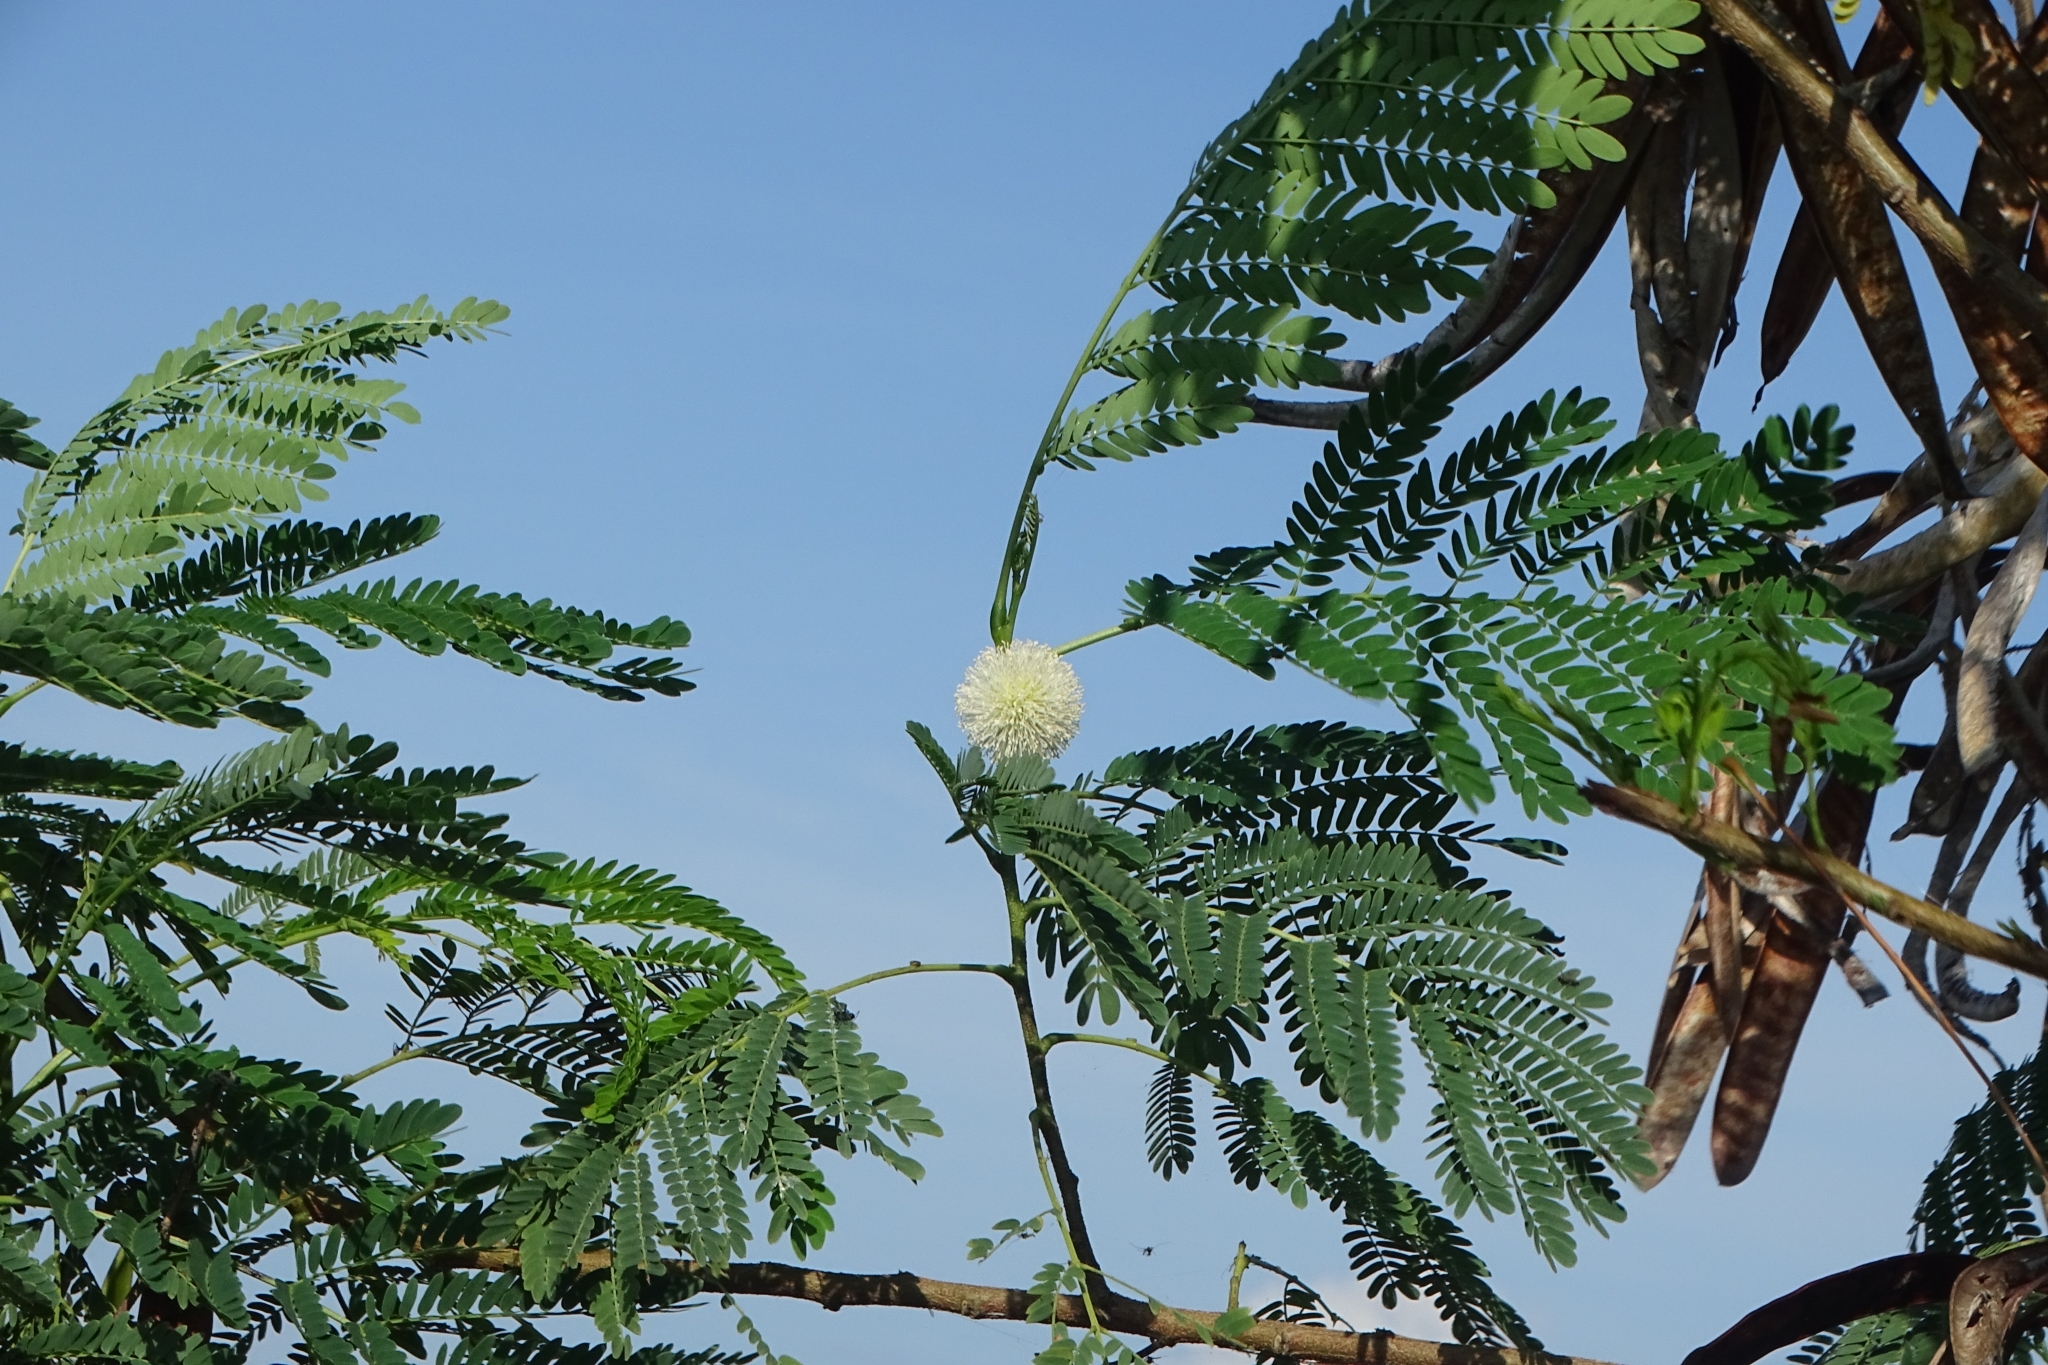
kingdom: Plantae
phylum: Tracheophyta
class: Magnoliopsida
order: Fabales
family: Fabaceae
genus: Leucaena
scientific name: Leucaena leucocephala
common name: White leadtree
